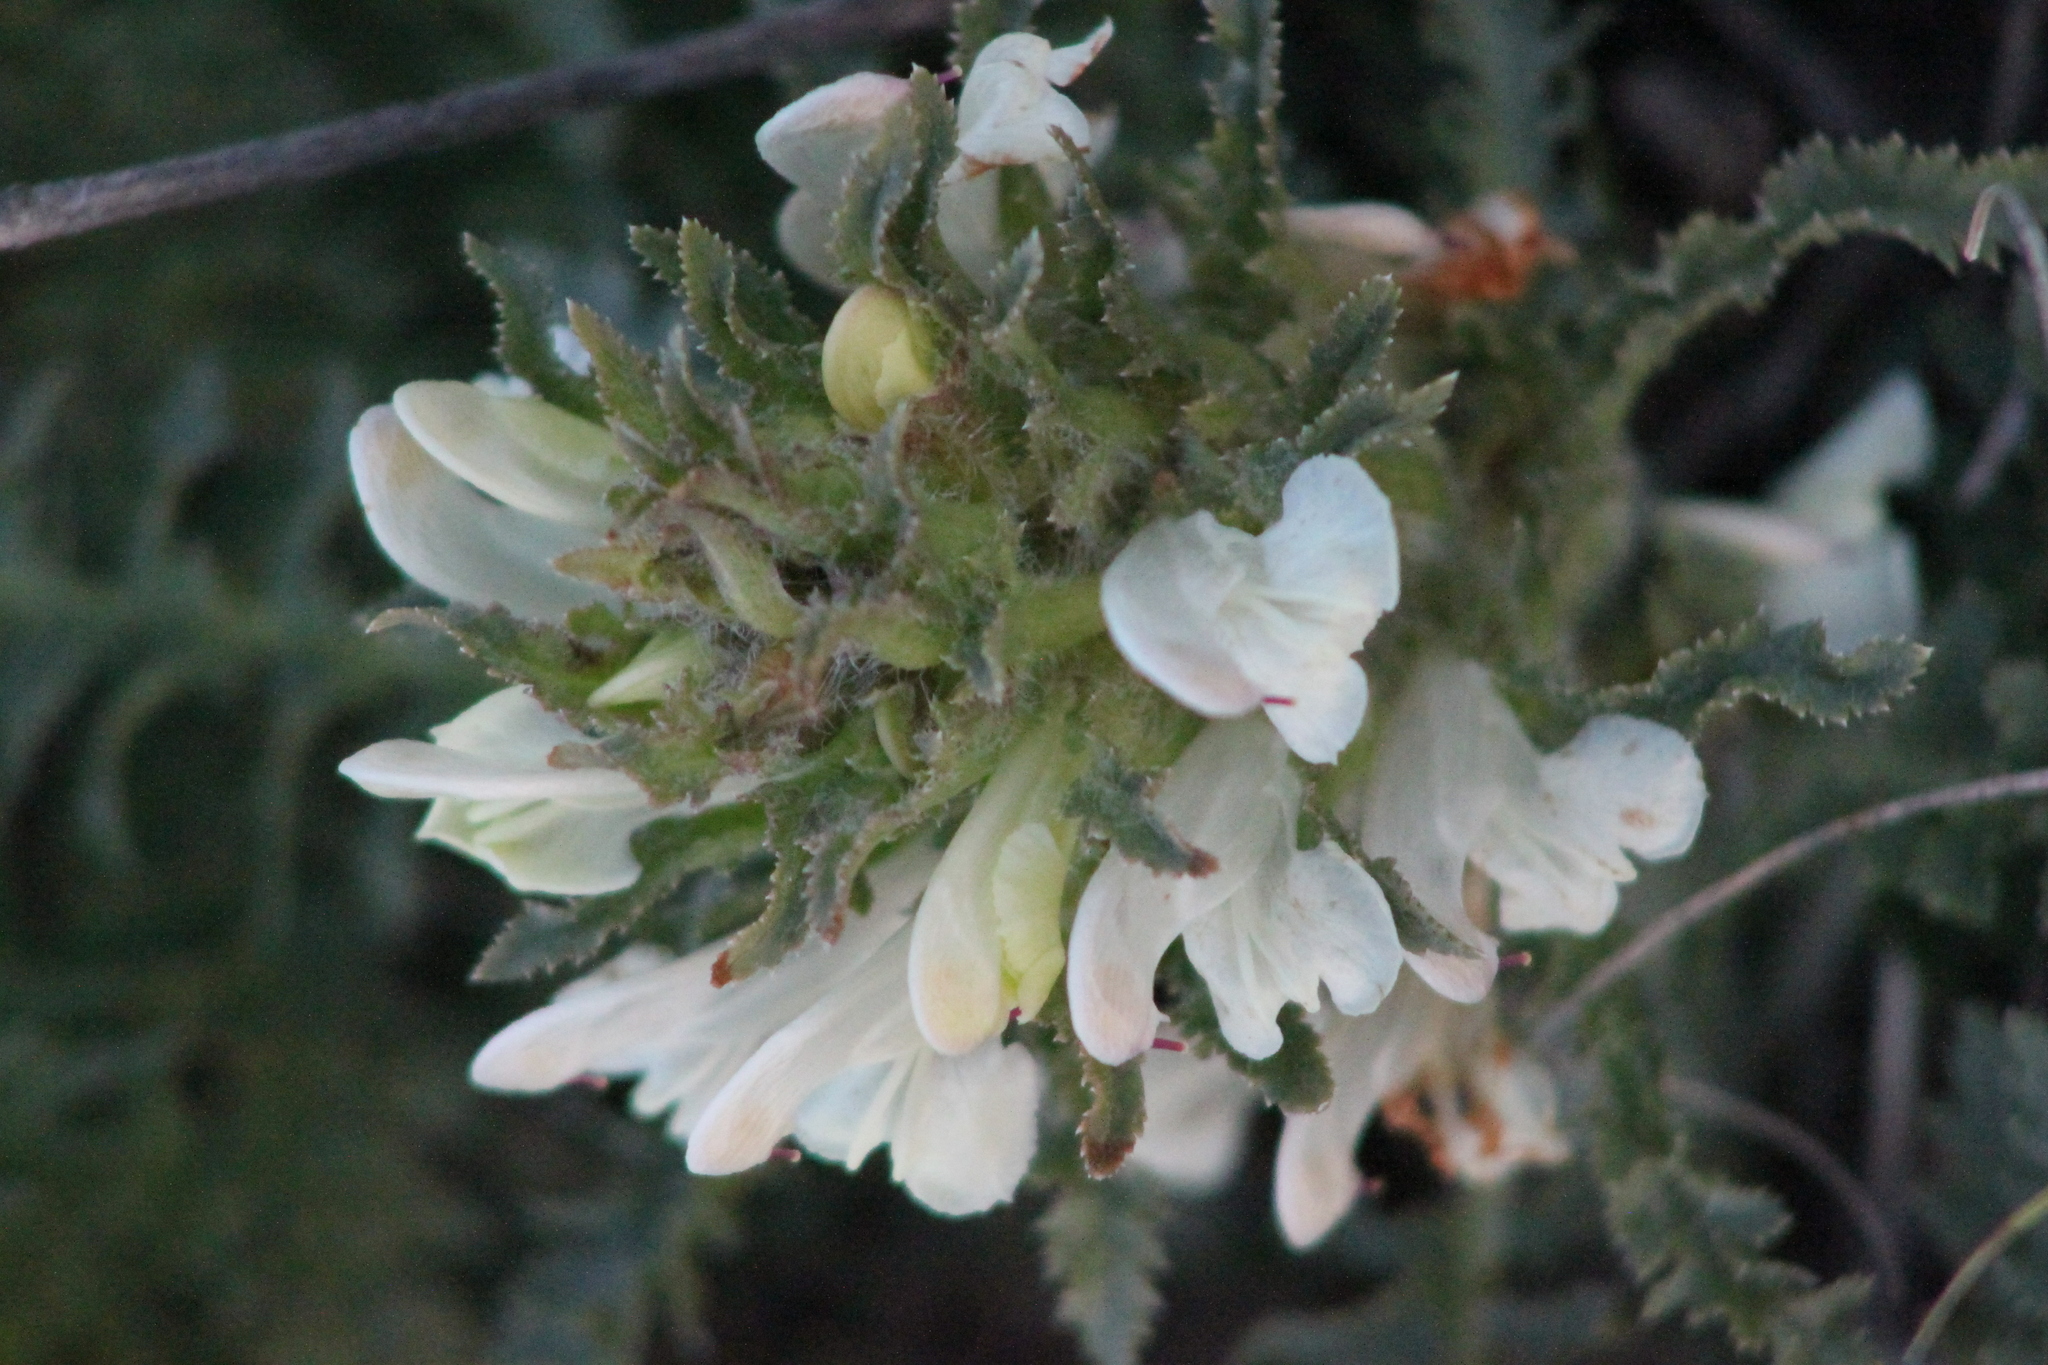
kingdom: Plantae
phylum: Tracheophyta
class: Magnoliopsida
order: Lamiales
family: Orobanchaceae
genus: Pedicularis
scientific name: Pedicularis physocalyx
